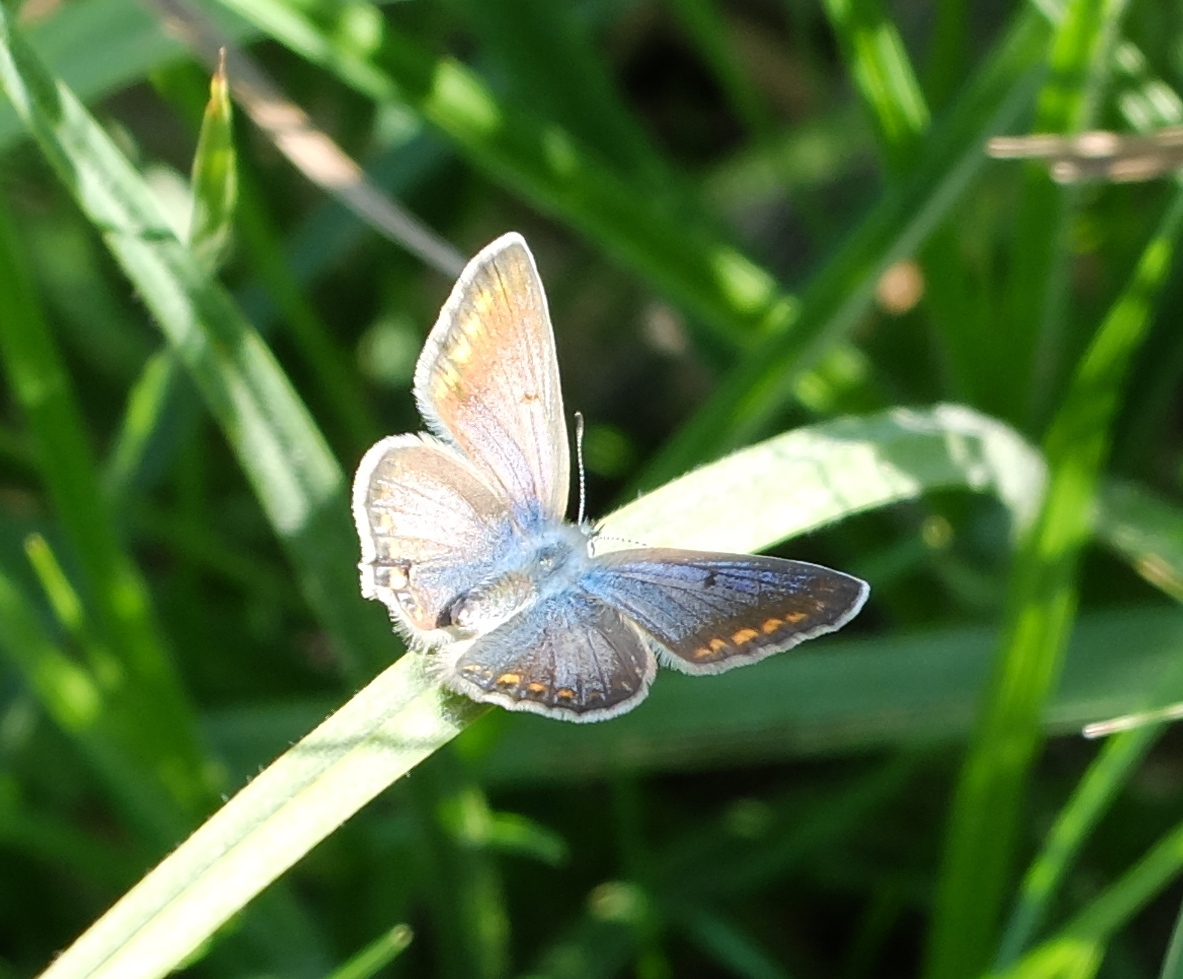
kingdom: Animalia
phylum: Arthropoda
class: Insecta
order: Lepidoptera
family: Lycaenidae
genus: Polyommatus
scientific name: Polyommatus icarus
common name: Common blue
